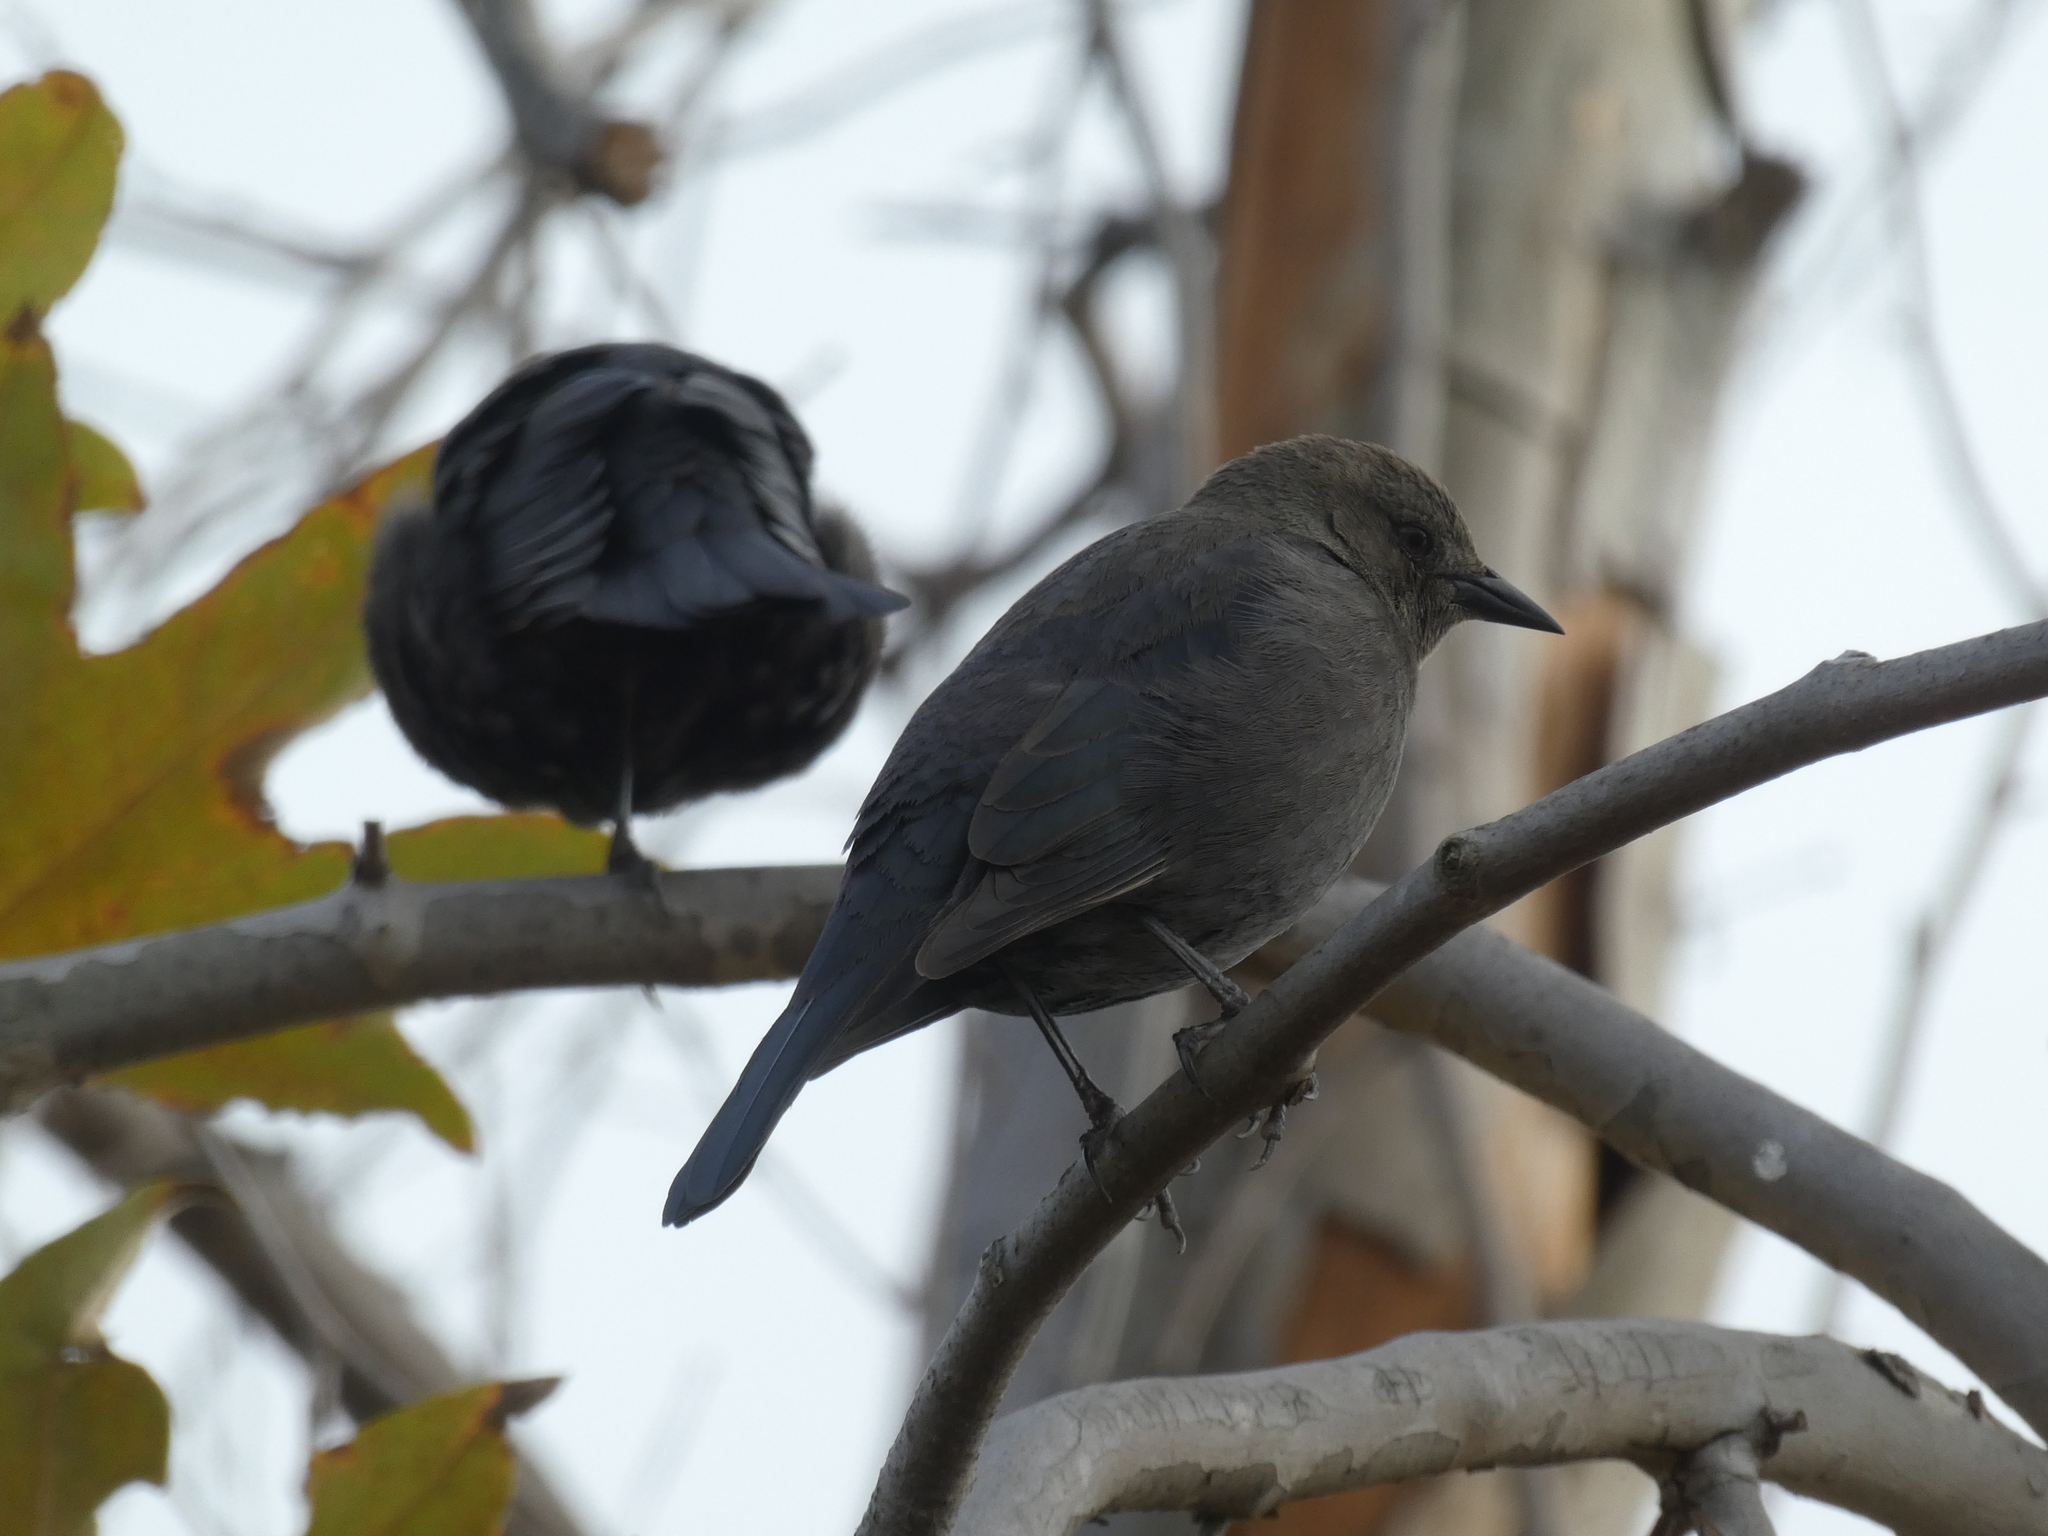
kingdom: Animalia
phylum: Chordata
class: Aves
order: Passeriformes
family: Icteridae
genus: Euphagus
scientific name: Euphagus cyanocephalus
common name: Brewer's blackbird
